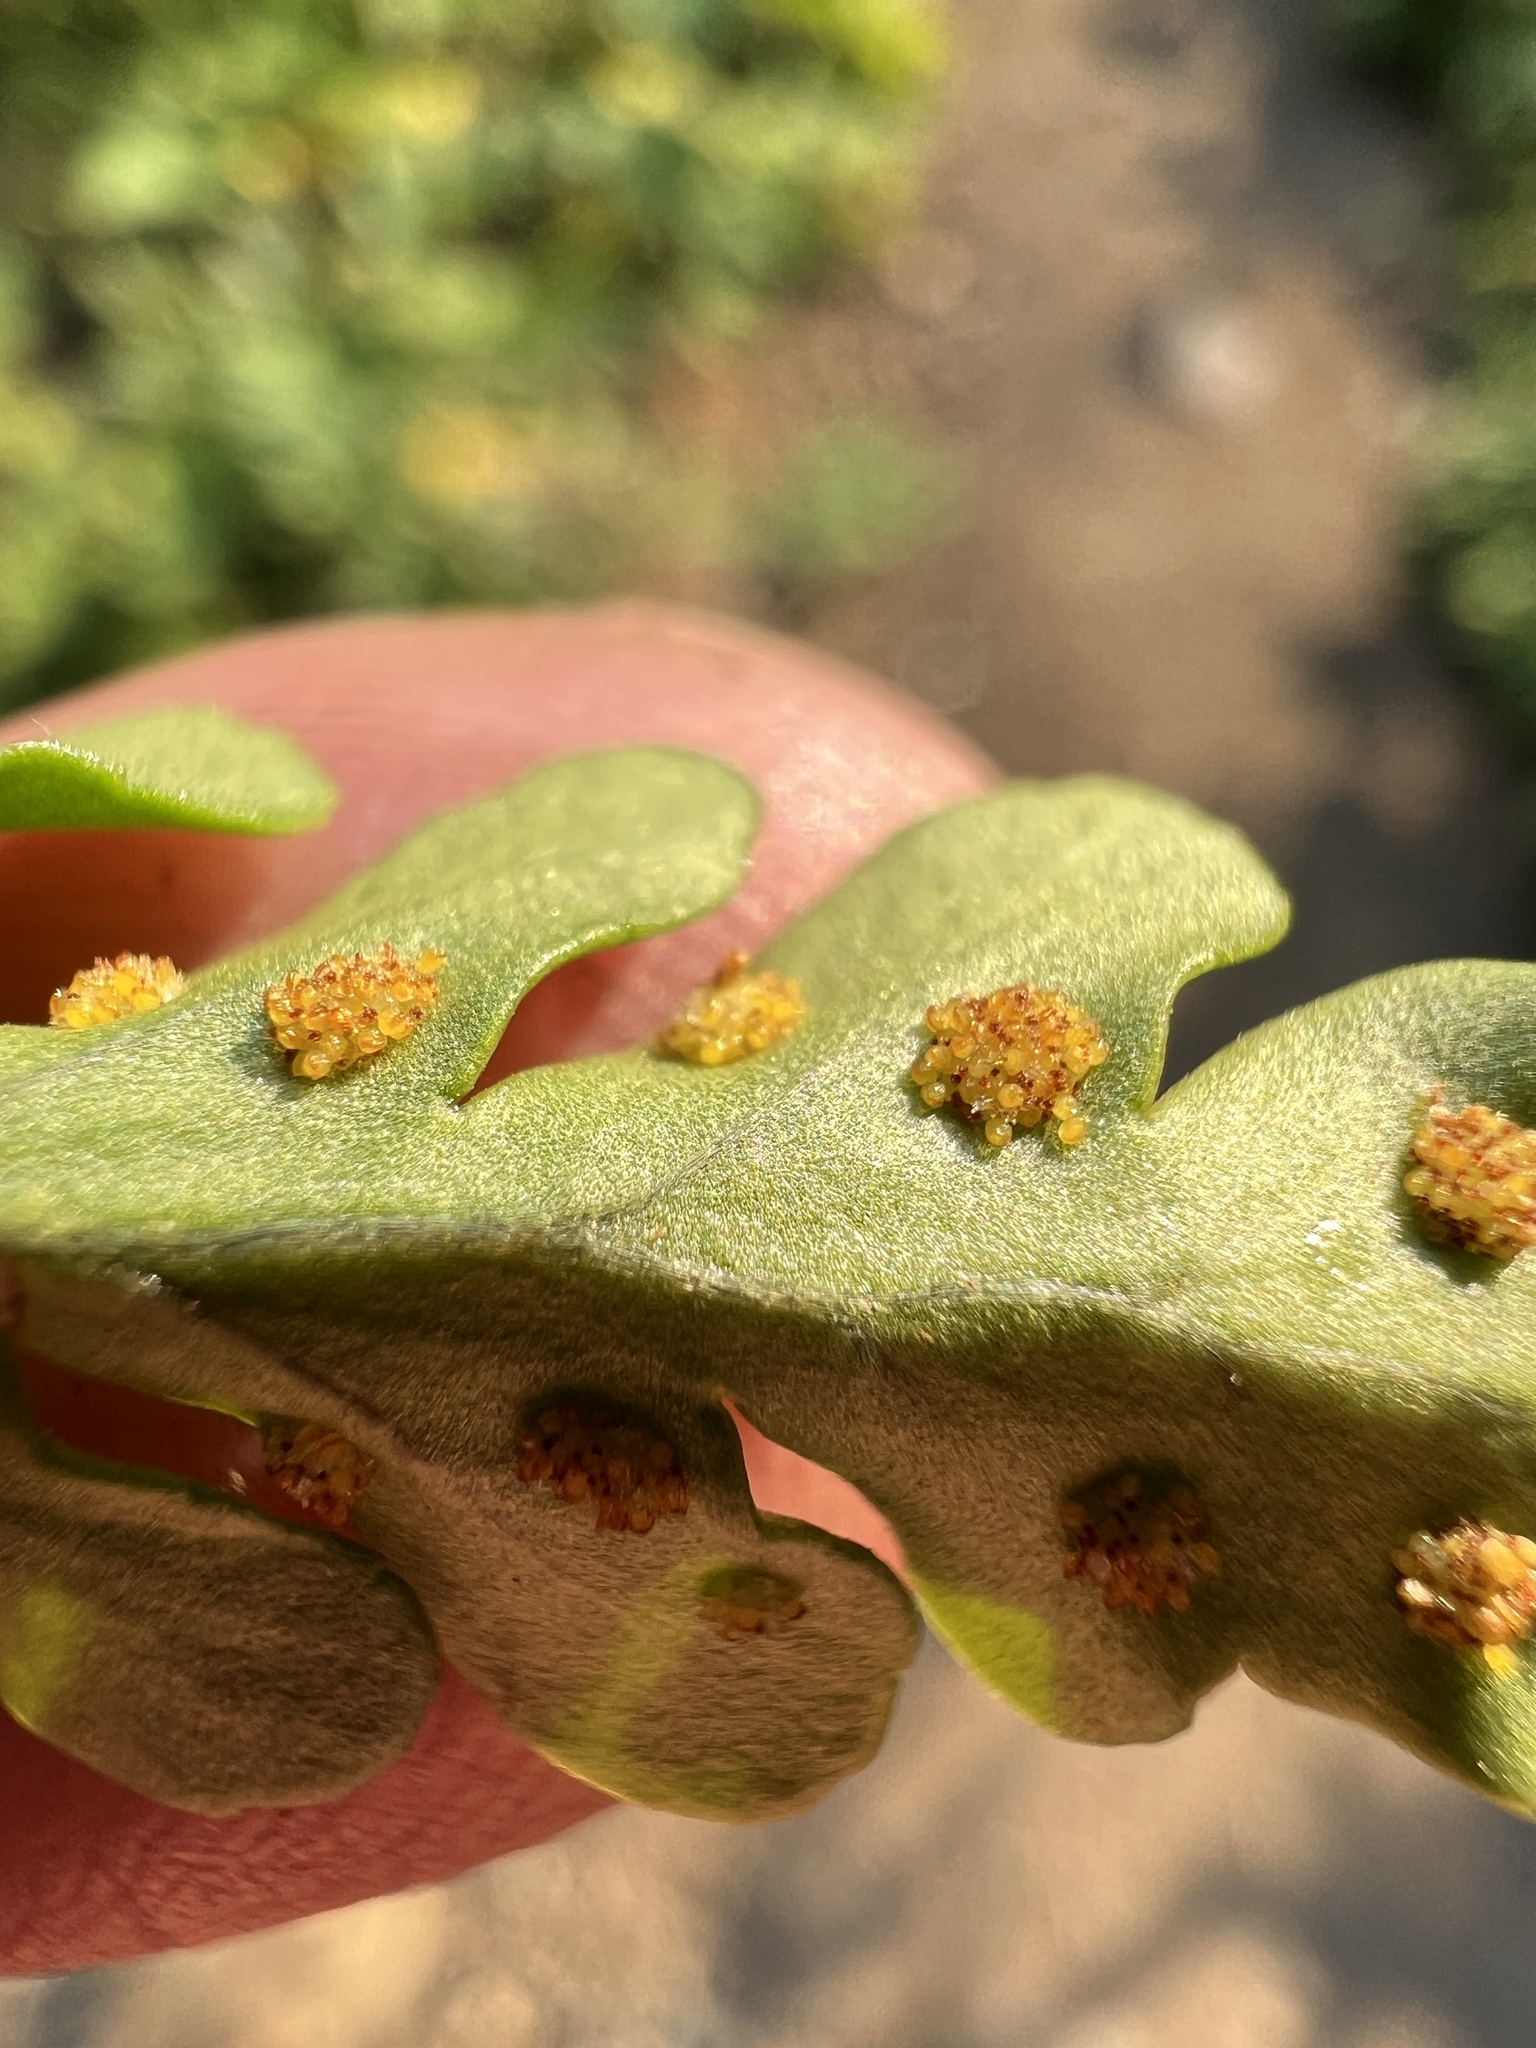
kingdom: Plantae
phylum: Tracheophyta
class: Polypodiopsida
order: Polypodiales
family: Polypodiaceae
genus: Polypodium
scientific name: Polypodium amorphum
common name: Pacific polypody
